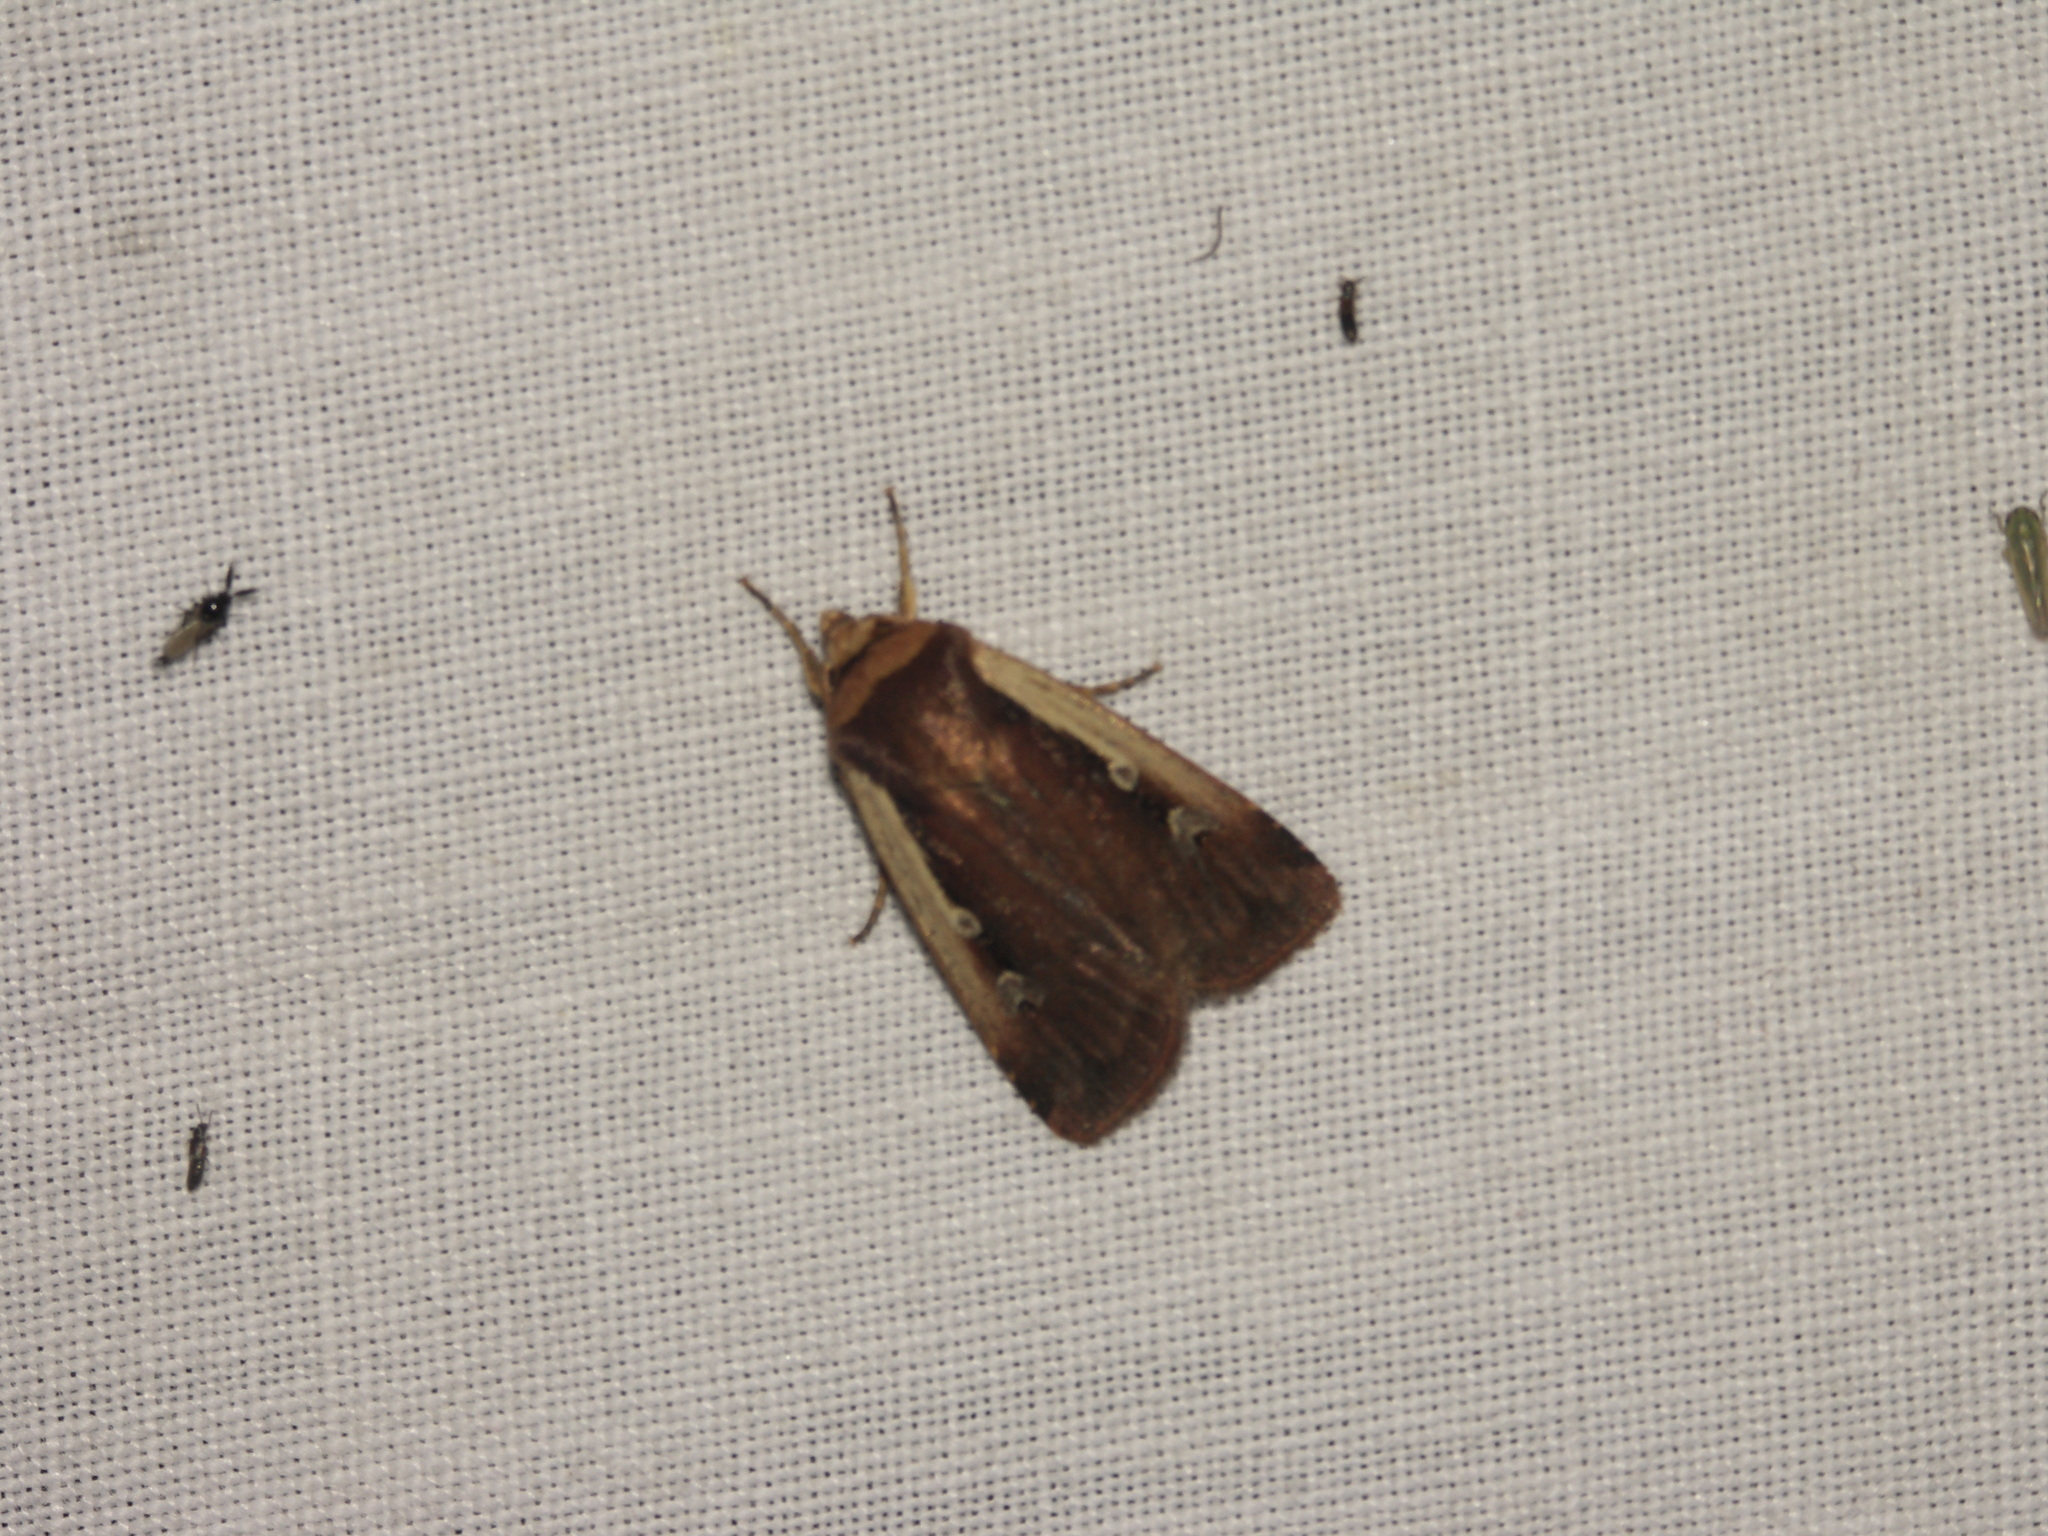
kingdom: Animalia
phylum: Arthropoda
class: Insecta
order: Lepidoptera
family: Noctuidae
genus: Ochropleura
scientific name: Ochropleura plecta
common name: Flame shoulder
